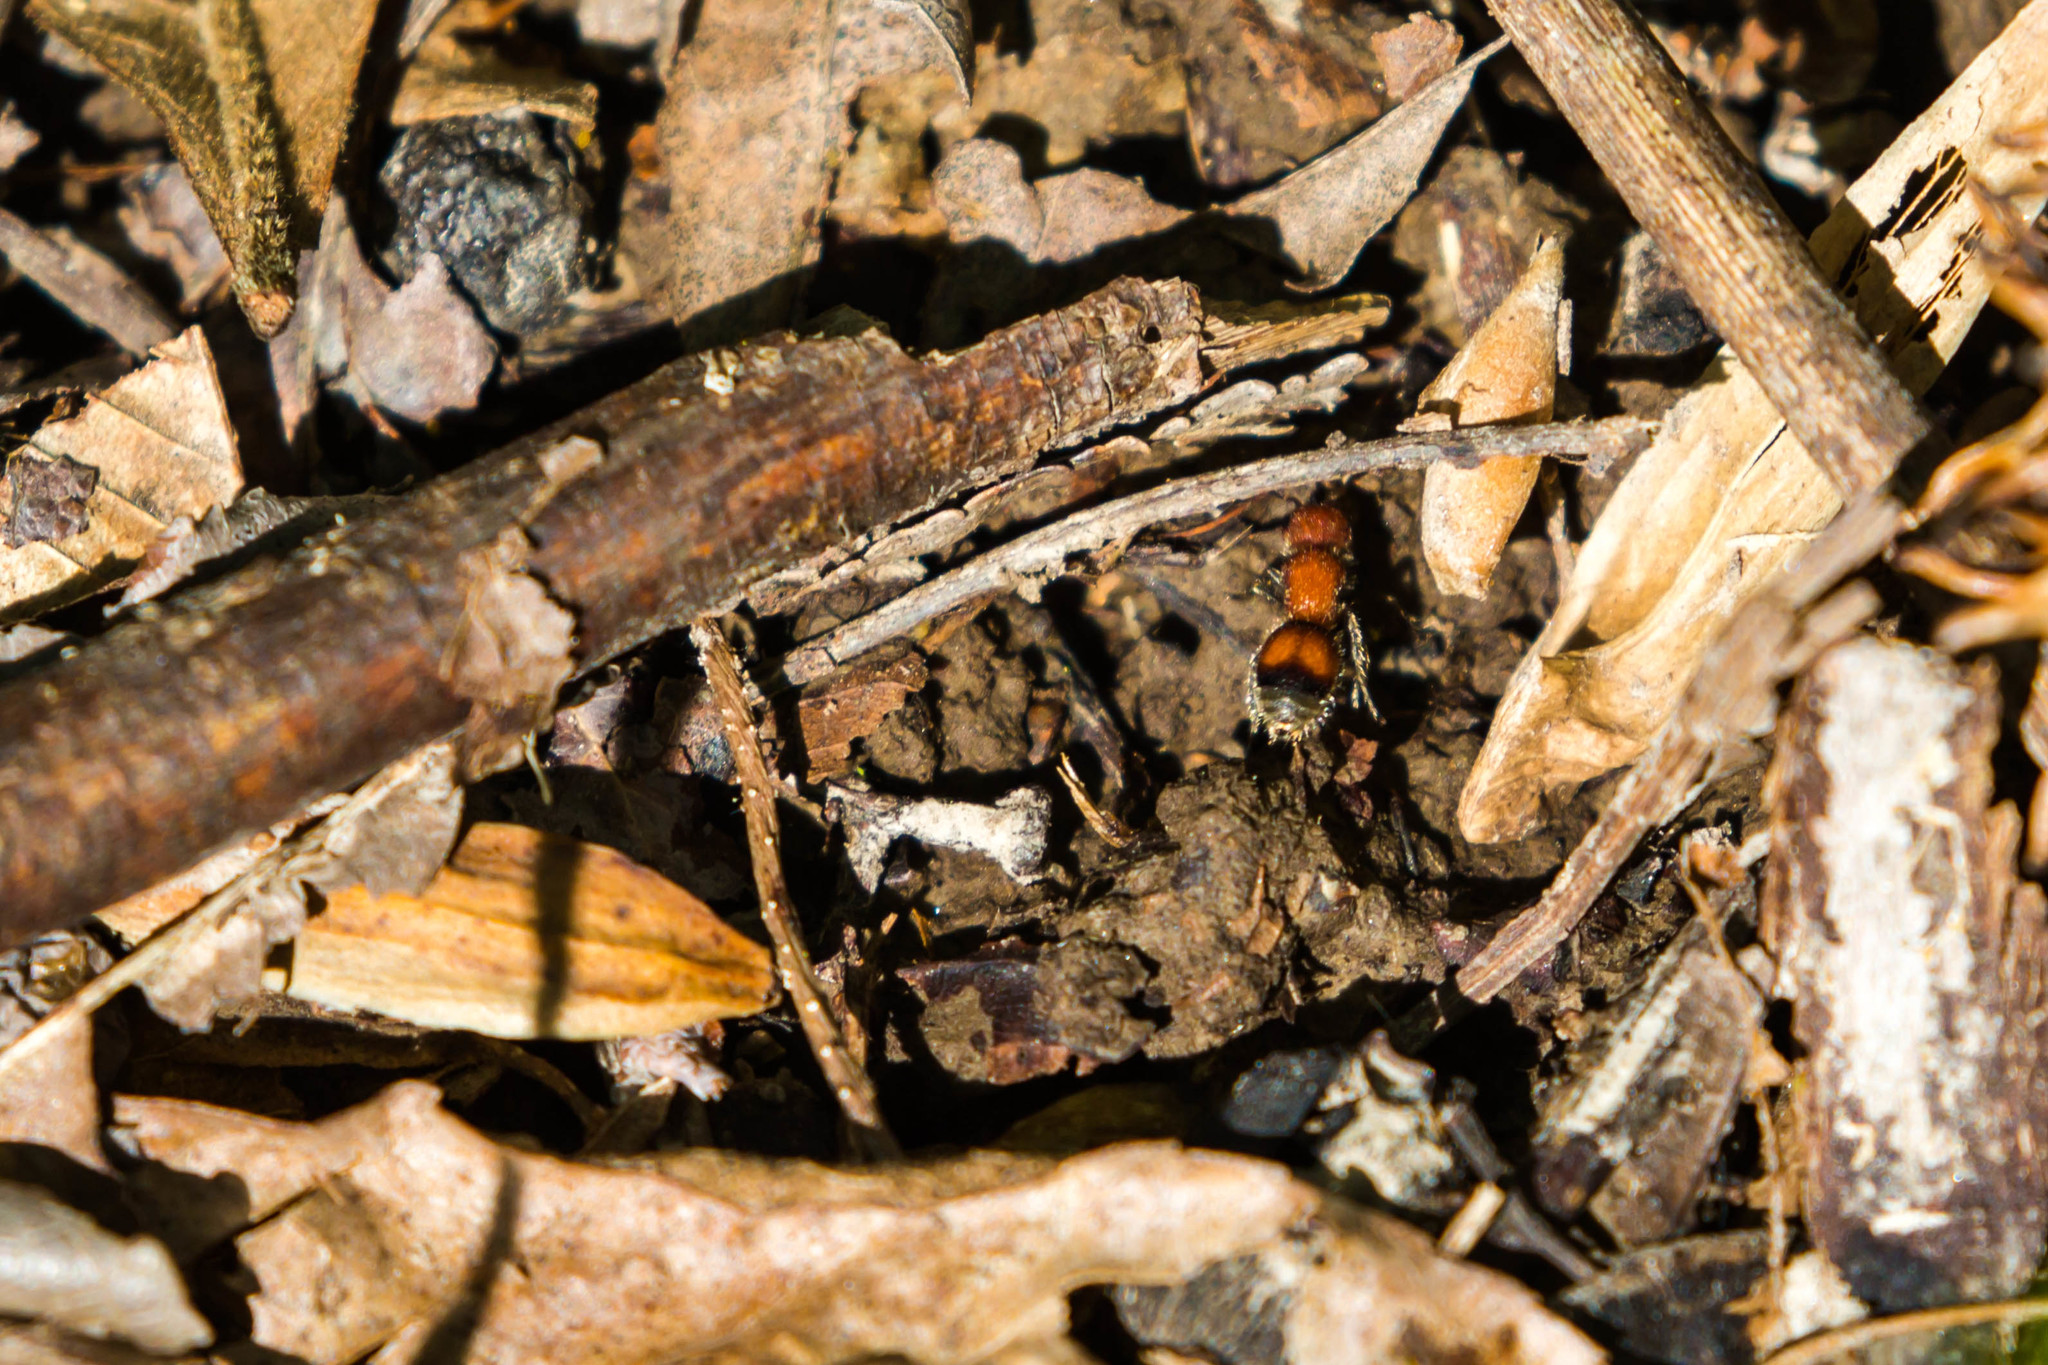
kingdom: Animalia
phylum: Arthropoda
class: Insecta
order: Hymenoptera
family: Mutillidae
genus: Pseudomethoca
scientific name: Pseudomethoca
